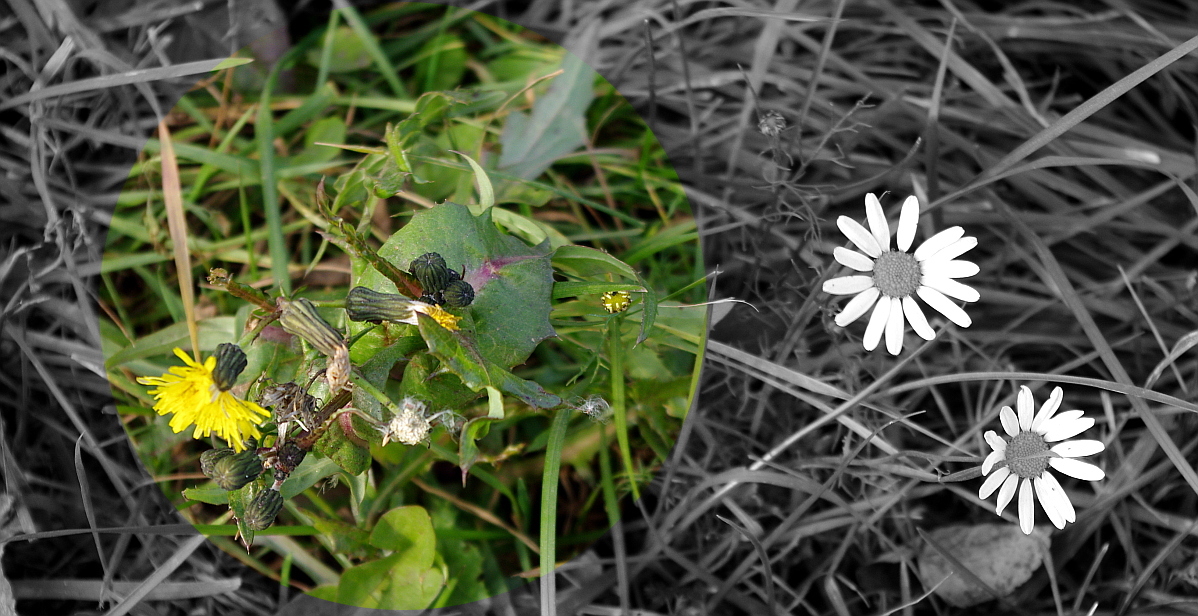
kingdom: Plantae
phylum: Tracheophyta
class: Magnoliopsida
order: Asterales
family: Asteraceae
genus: Sonchus
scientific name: Sonchus oleraceus
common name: Common sowthistle
